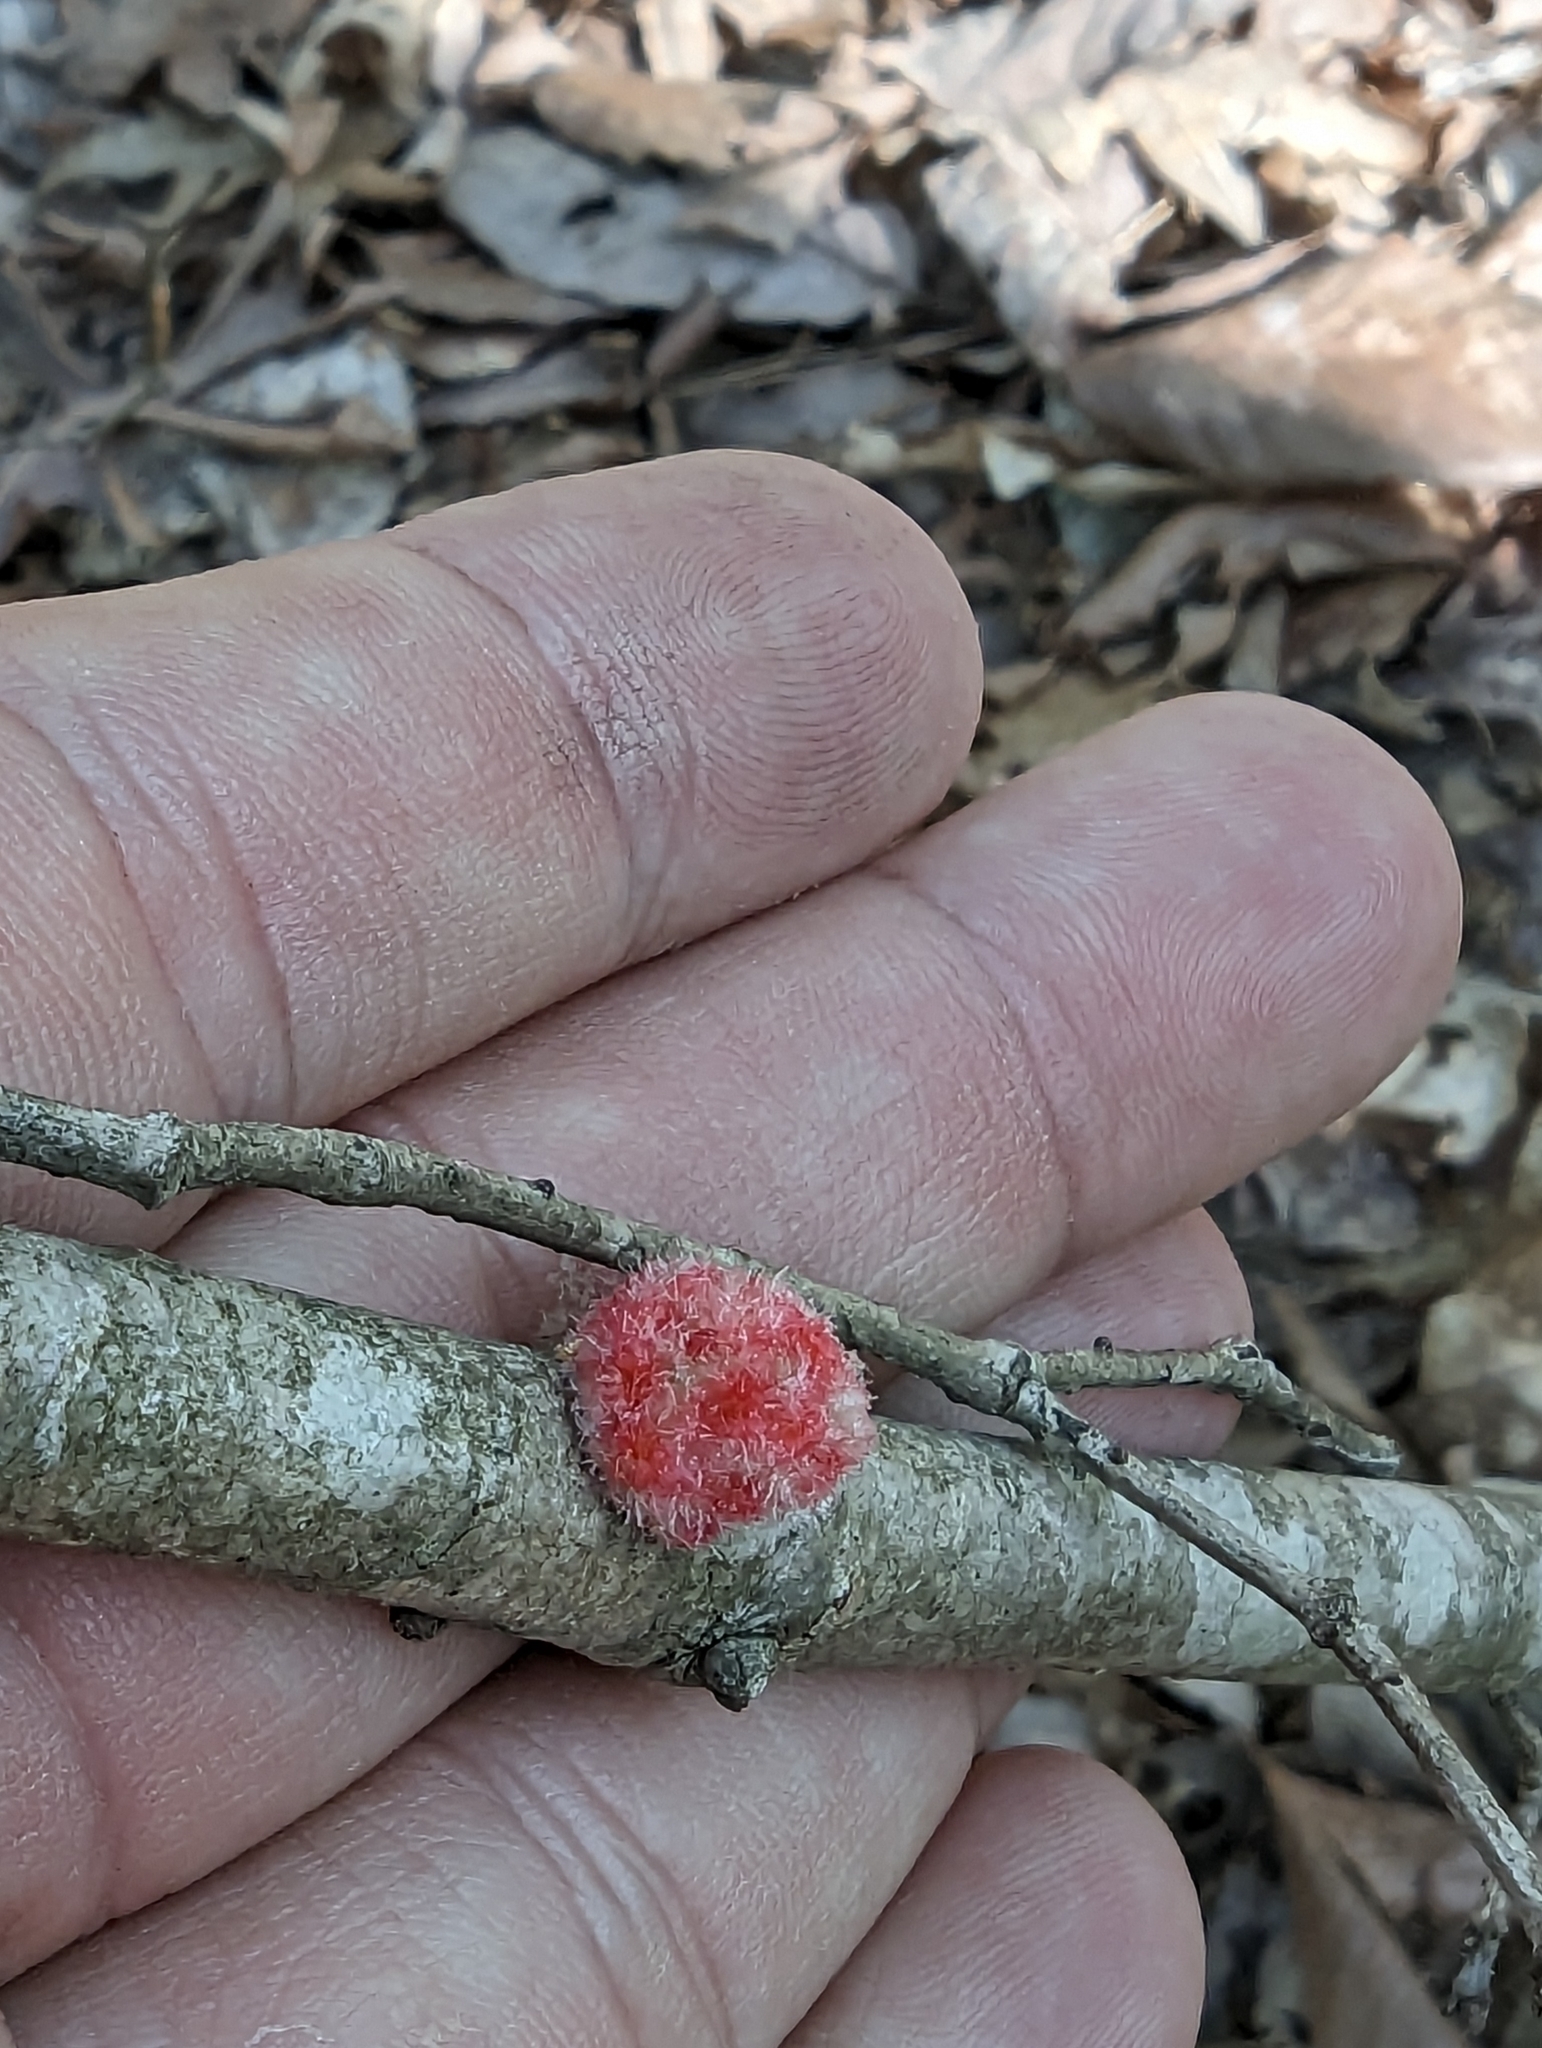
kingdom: Animalia
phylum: Arthropoda
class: Insecta
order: Hymenoptera
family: Cynipidae
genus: Callirhytis
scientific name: Callirhytis
